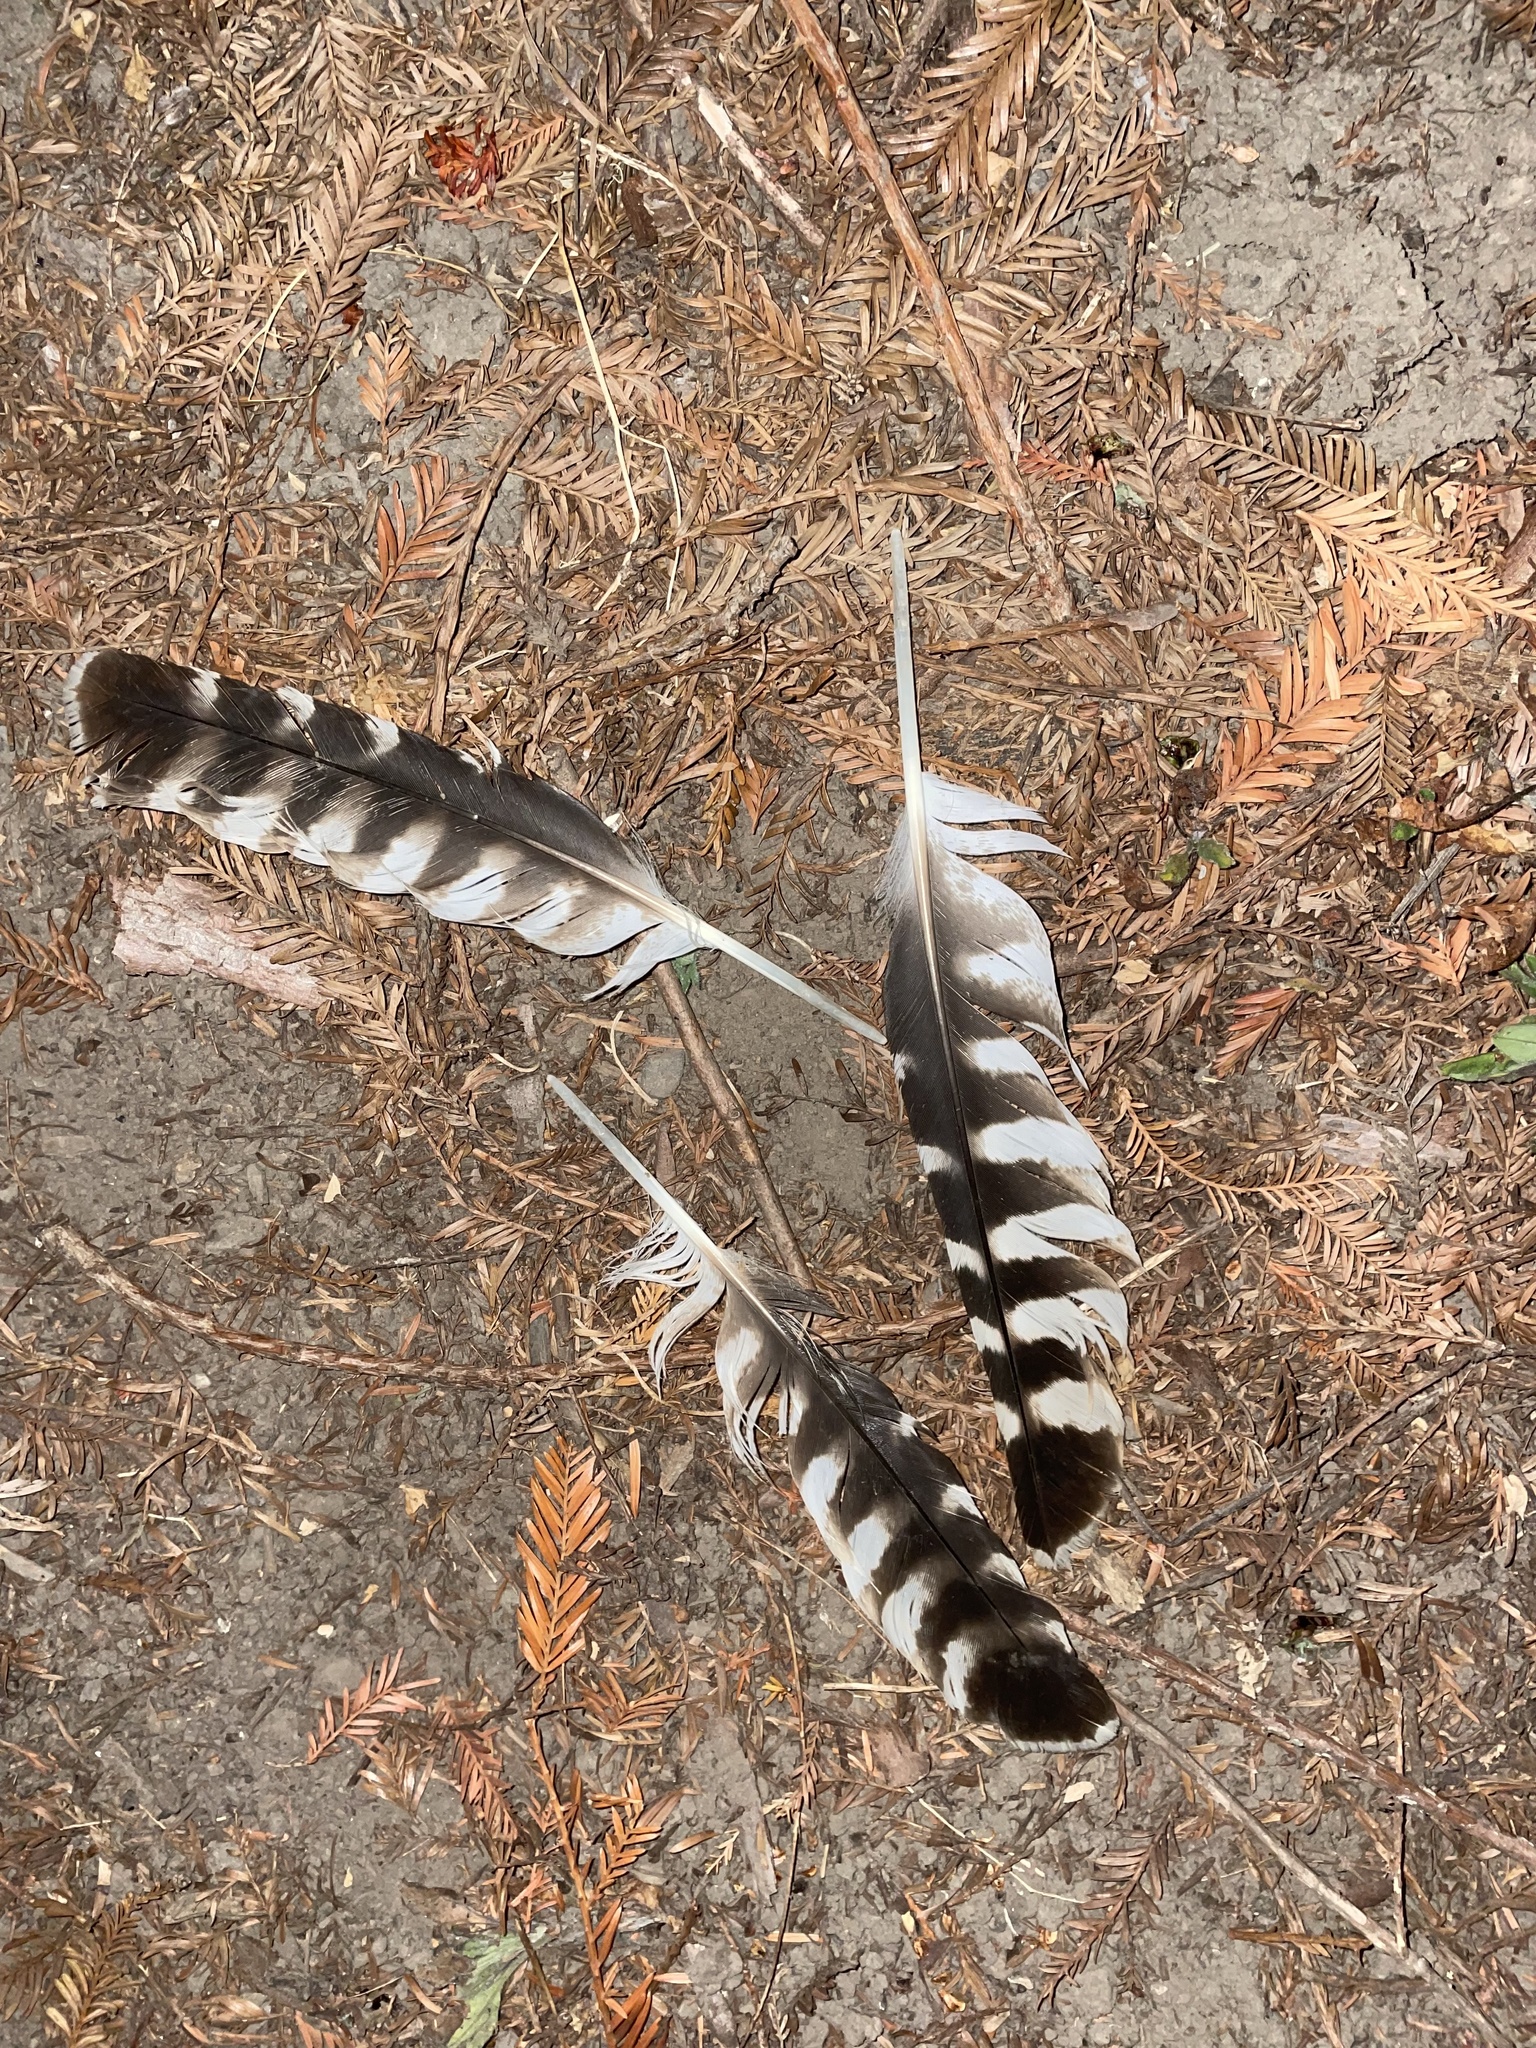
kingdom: Animalia
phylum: Chordata
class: Aves
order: Accipitriformes
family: Accipitridae
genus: Buteo
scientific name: Buteo lineatus
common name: Red-shouldered hawk
